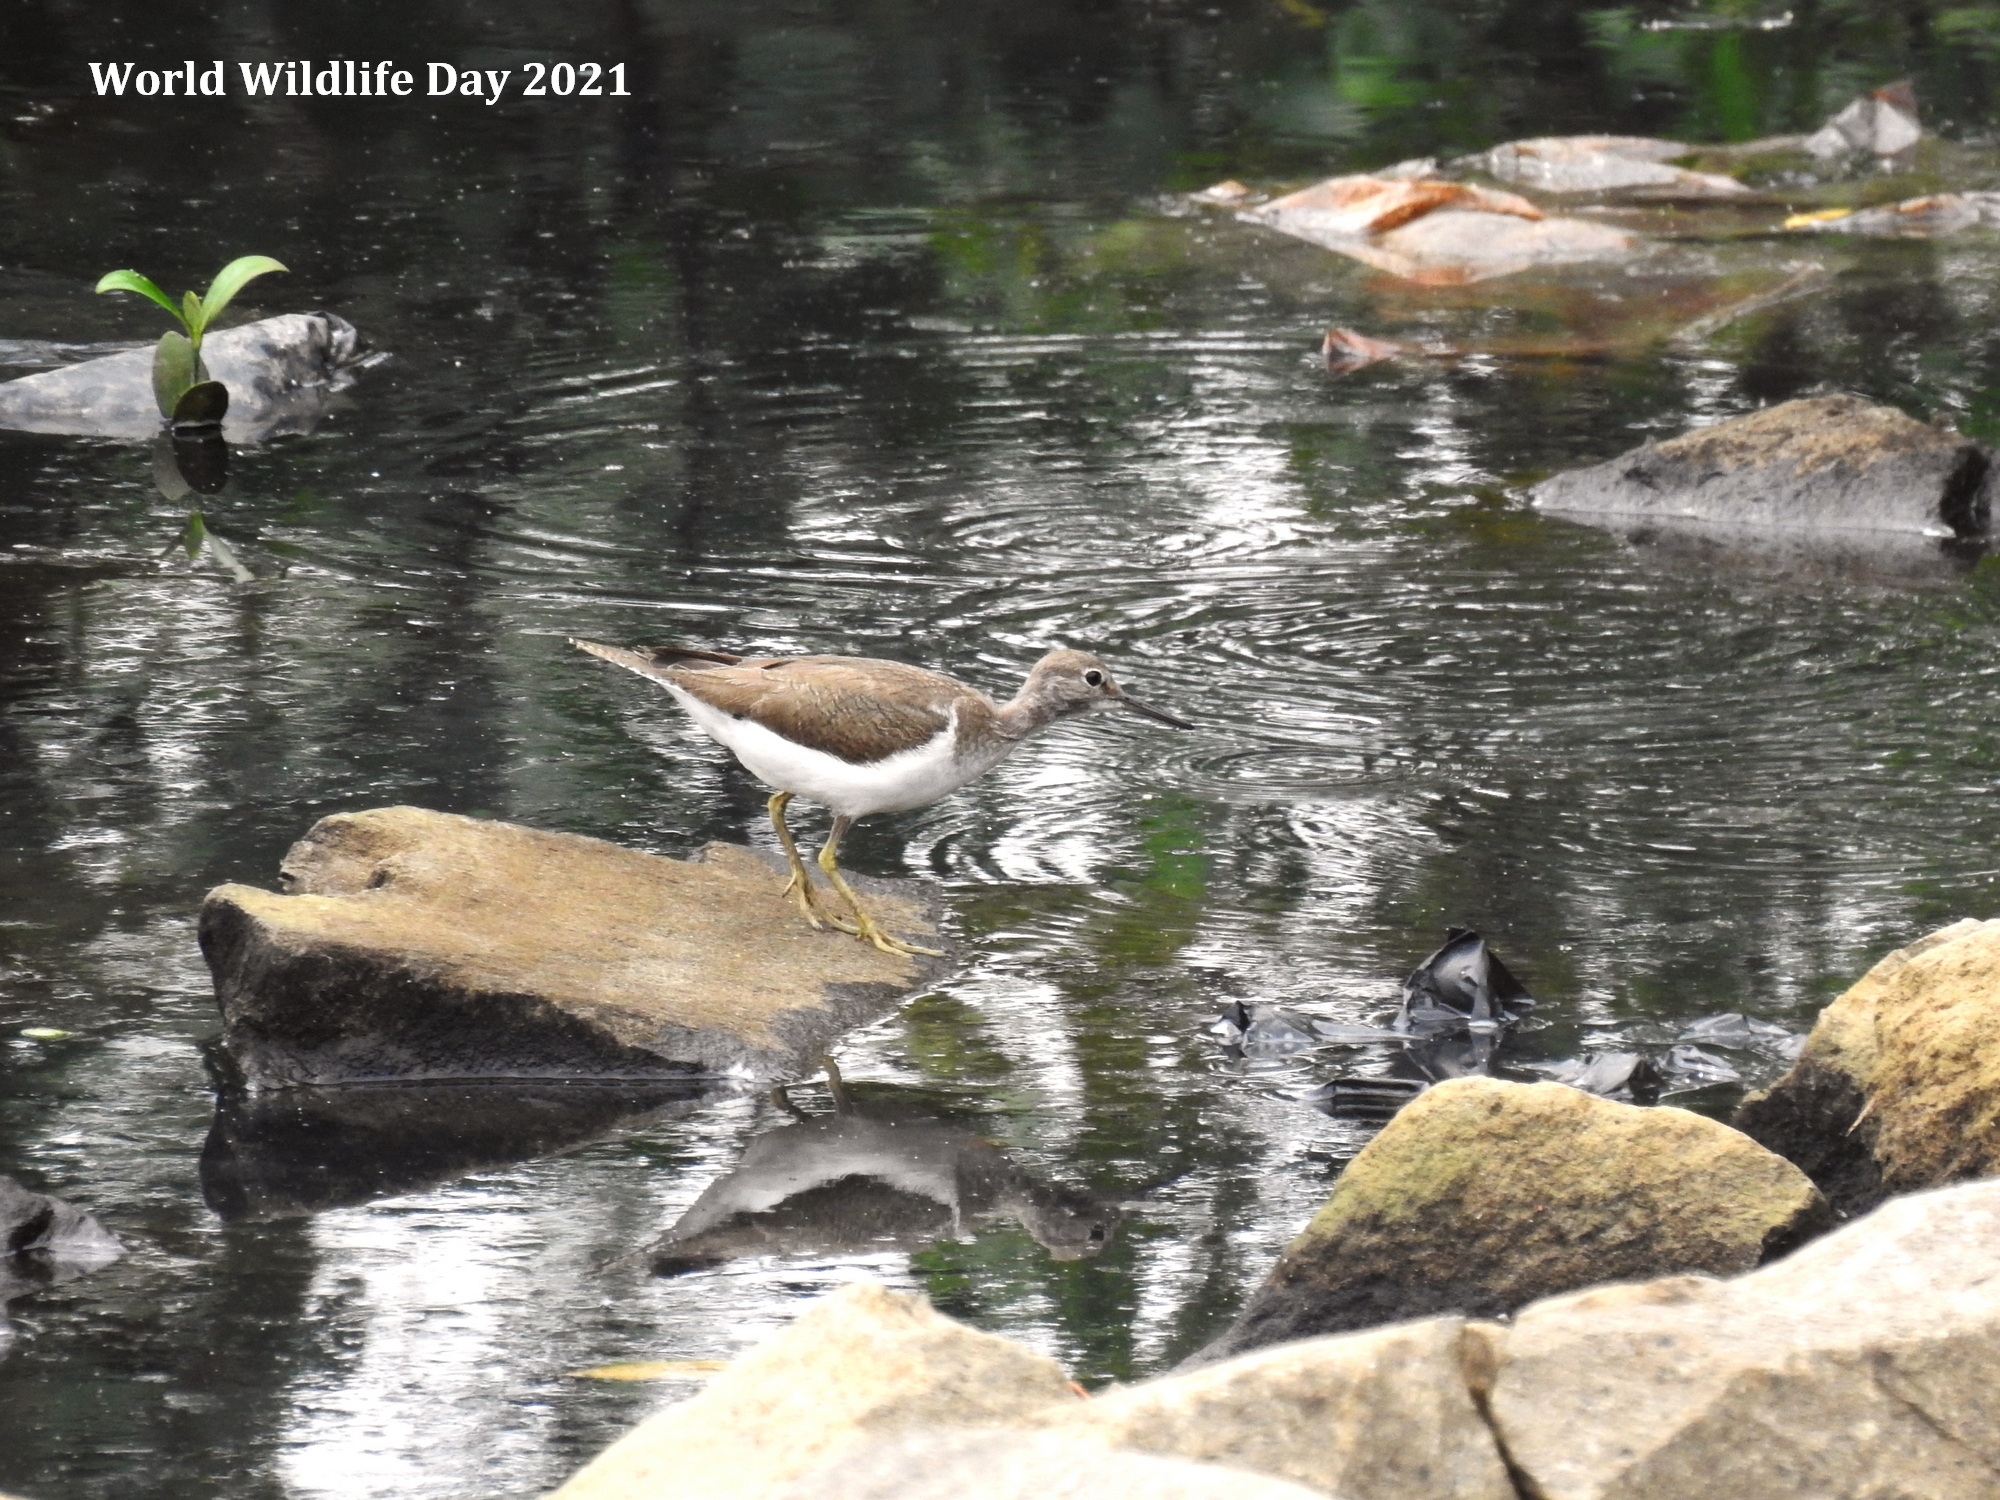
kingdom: Animalia
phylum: Chordata
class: Aves
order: Charadriiformes
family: Scolopacidae
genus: Actitis
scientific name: Actitis hypoleucos
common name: Common sandpiper
